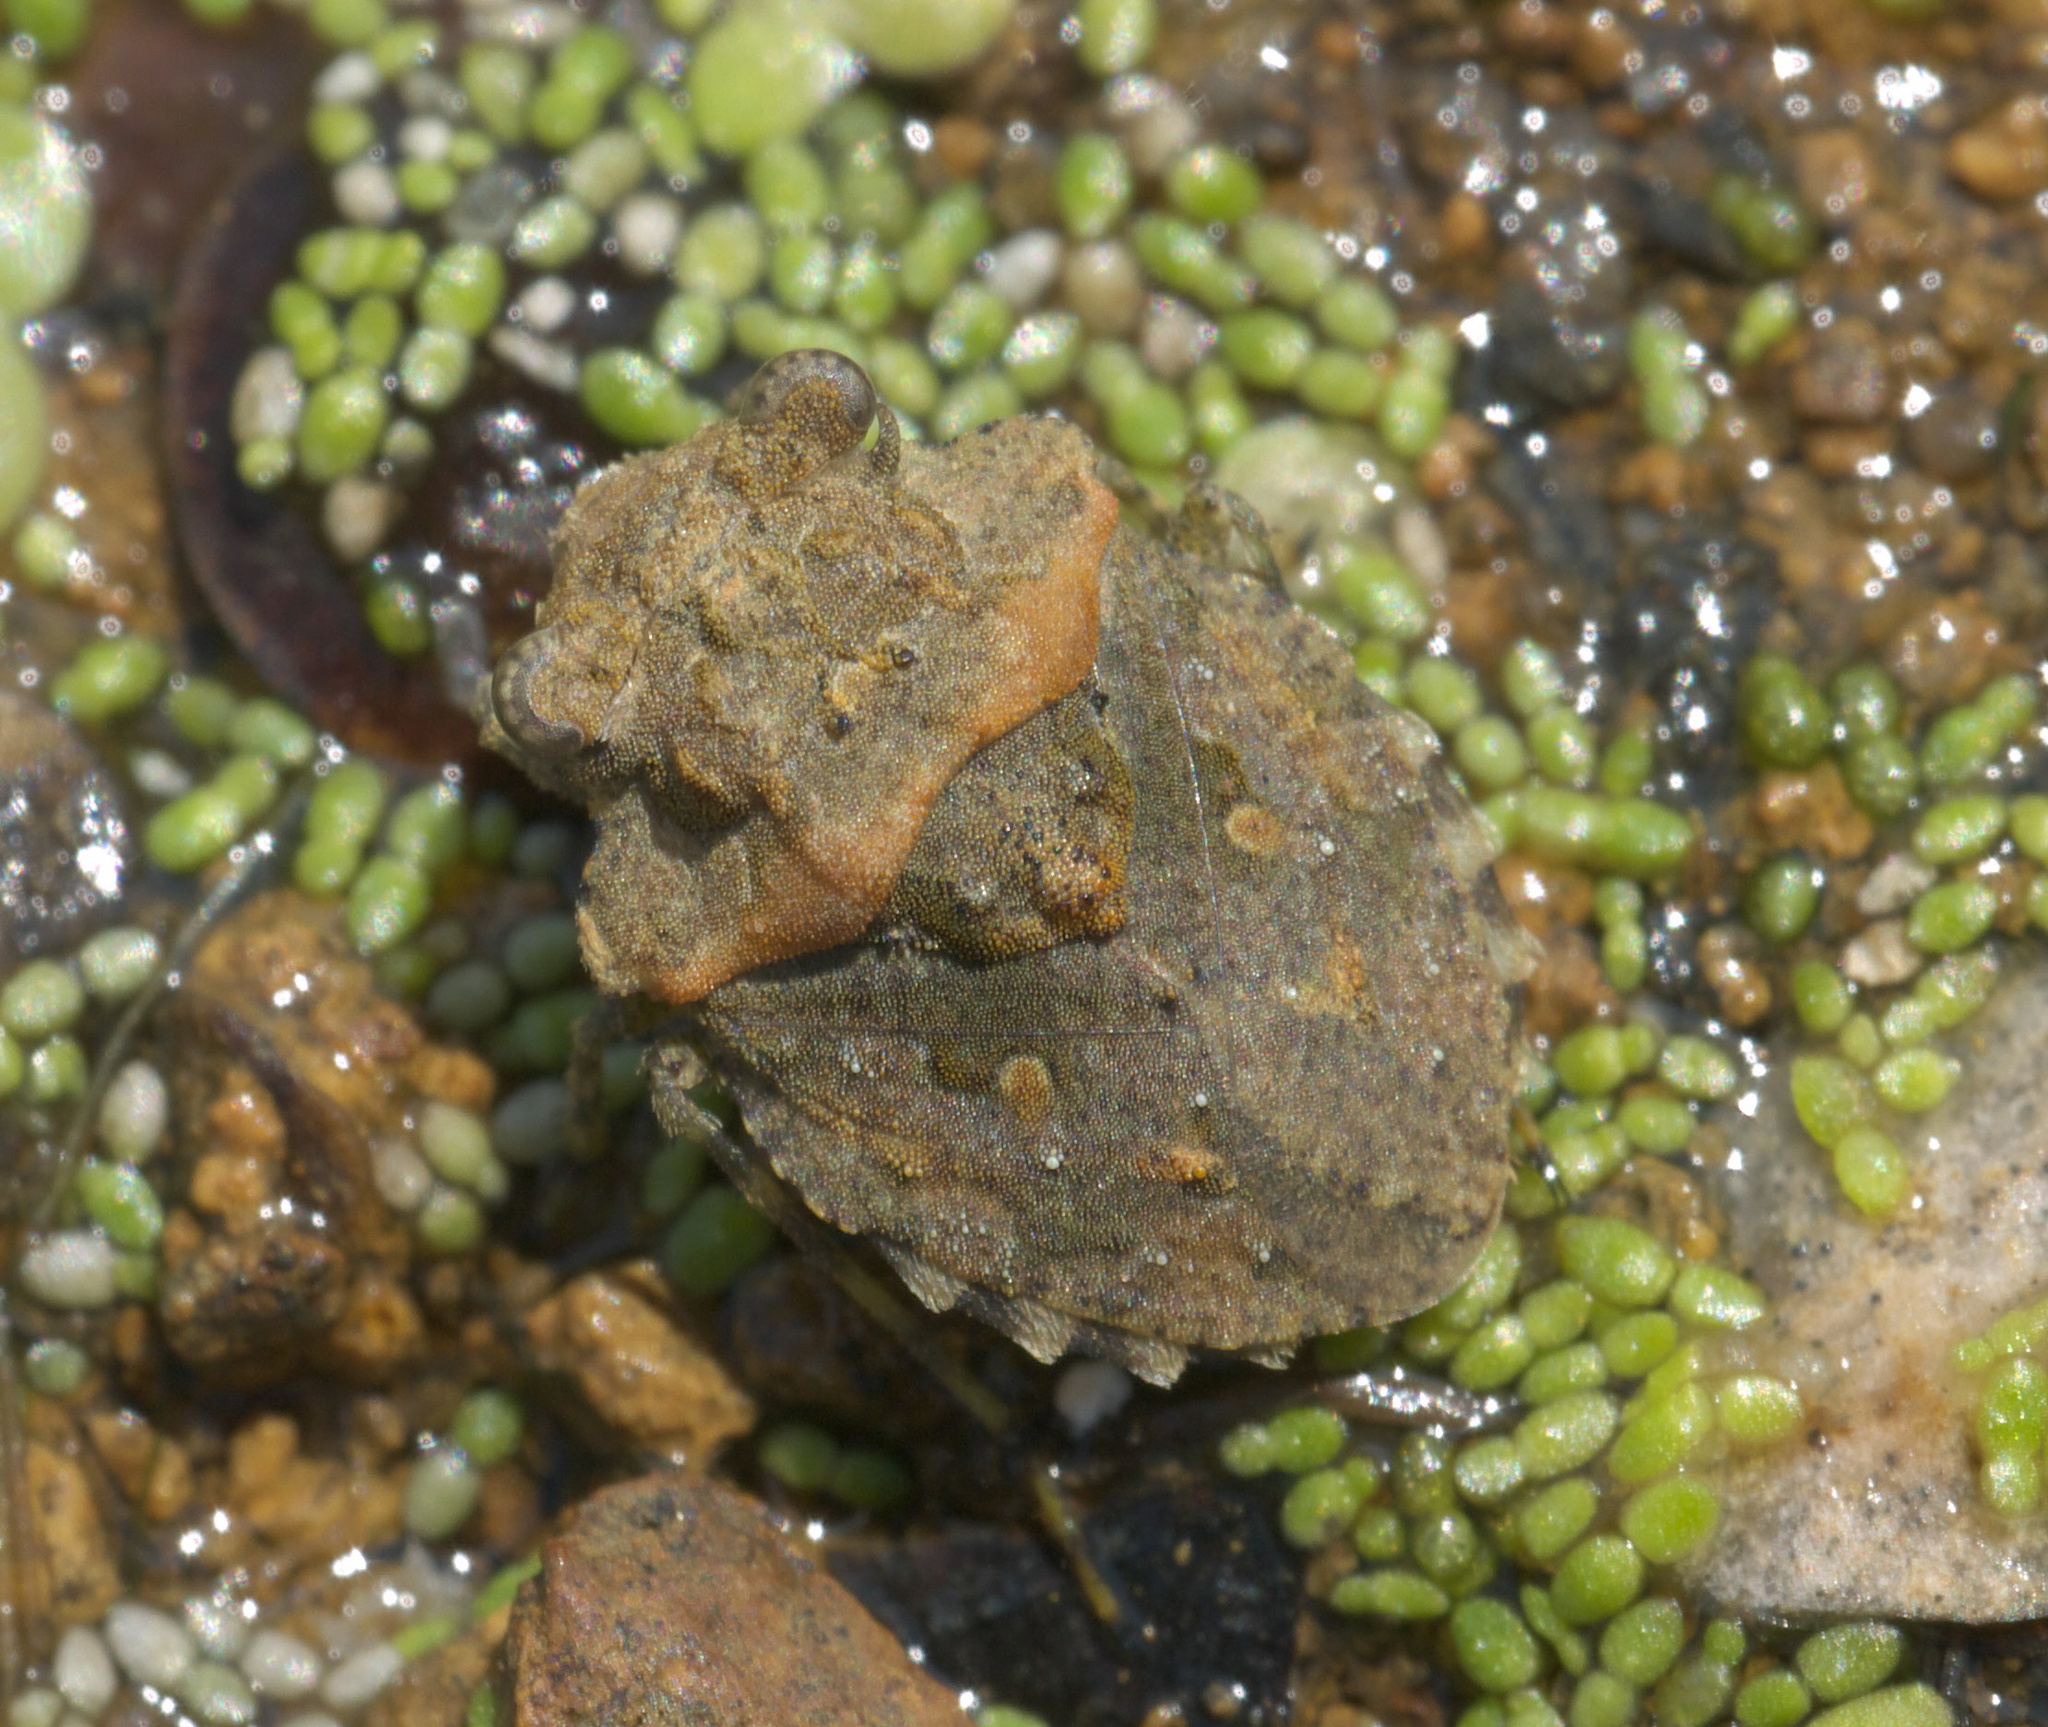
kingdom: Animalia
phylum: Arthropoda
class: Insecta
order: Hemiptera
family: Gelastocoridae
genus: Gelastocoris
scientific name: Gelastocoris oculatus
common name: Toad bug
